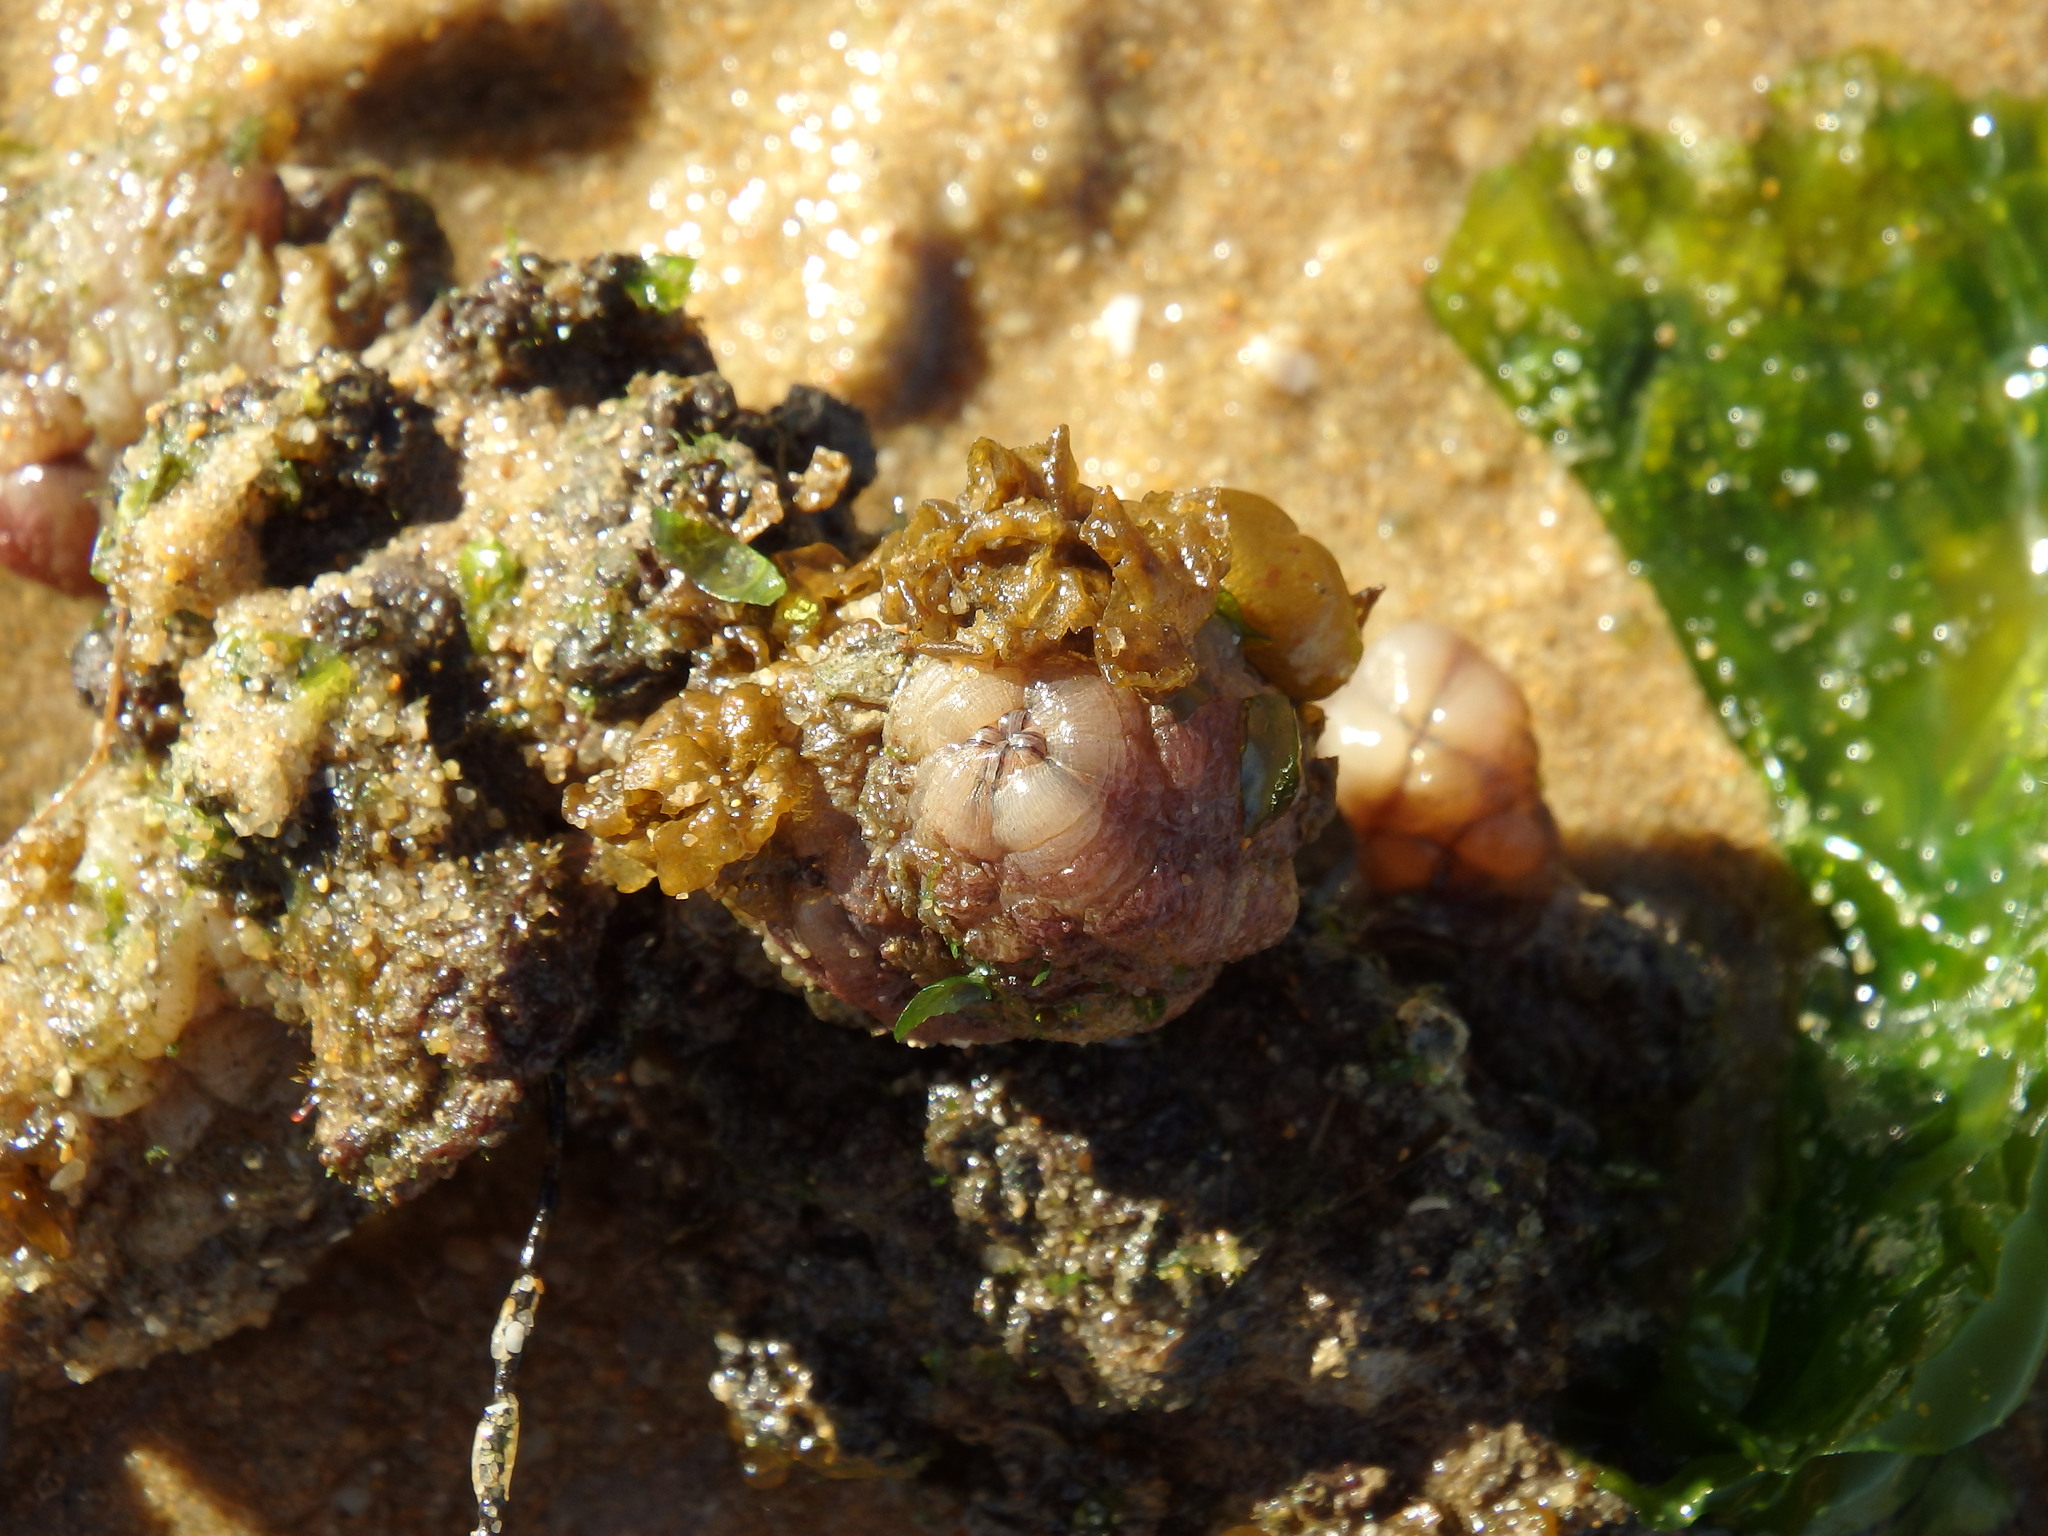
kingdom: Animalia
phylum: Chordata
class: Ascidiacea
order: Stolidobranchia
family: Styelidae
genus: Styela
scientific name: Styela plicata
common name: Pleated tunicate
